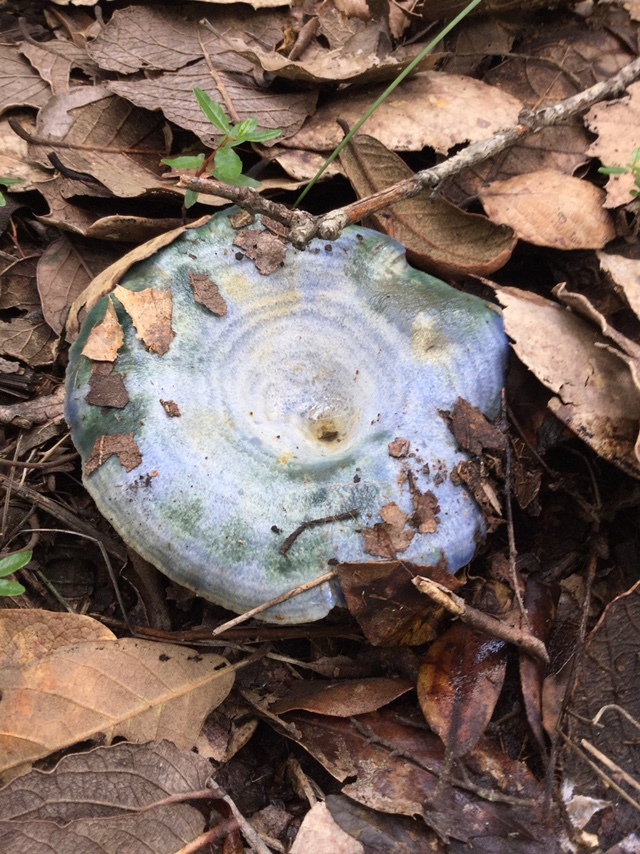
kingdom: Fungi
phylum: Basidiomycota
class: Agaricomycetes
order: Russulales
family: Russulaceae
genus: Lactarius
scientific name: Lactarius indigo
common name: Indigo milk cap
